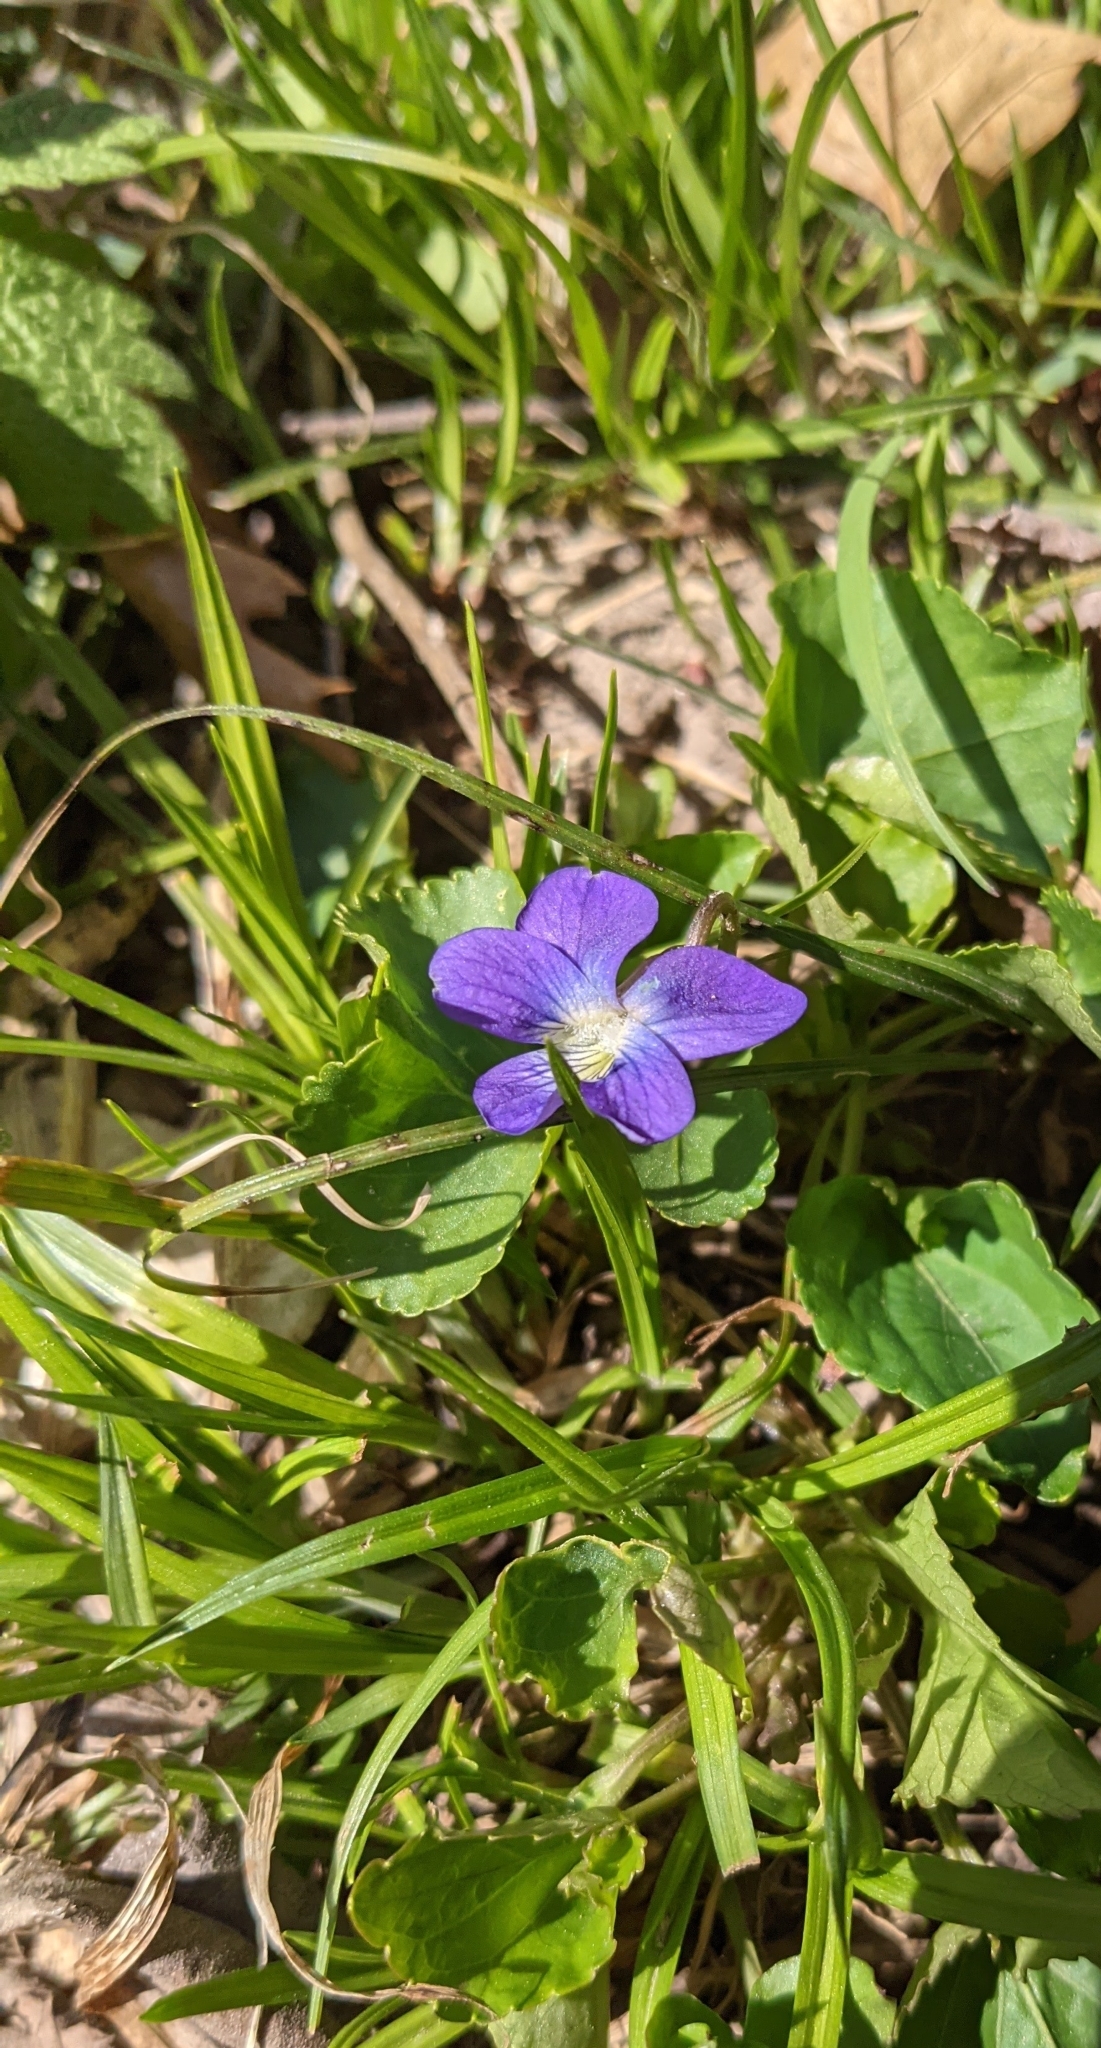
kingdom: Plantae
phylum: Tracheophyta
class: Magnoliopsida
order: Malpighiales
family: Violaceae
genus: Viola
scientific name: Viola sororia
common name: Dooryard violet
